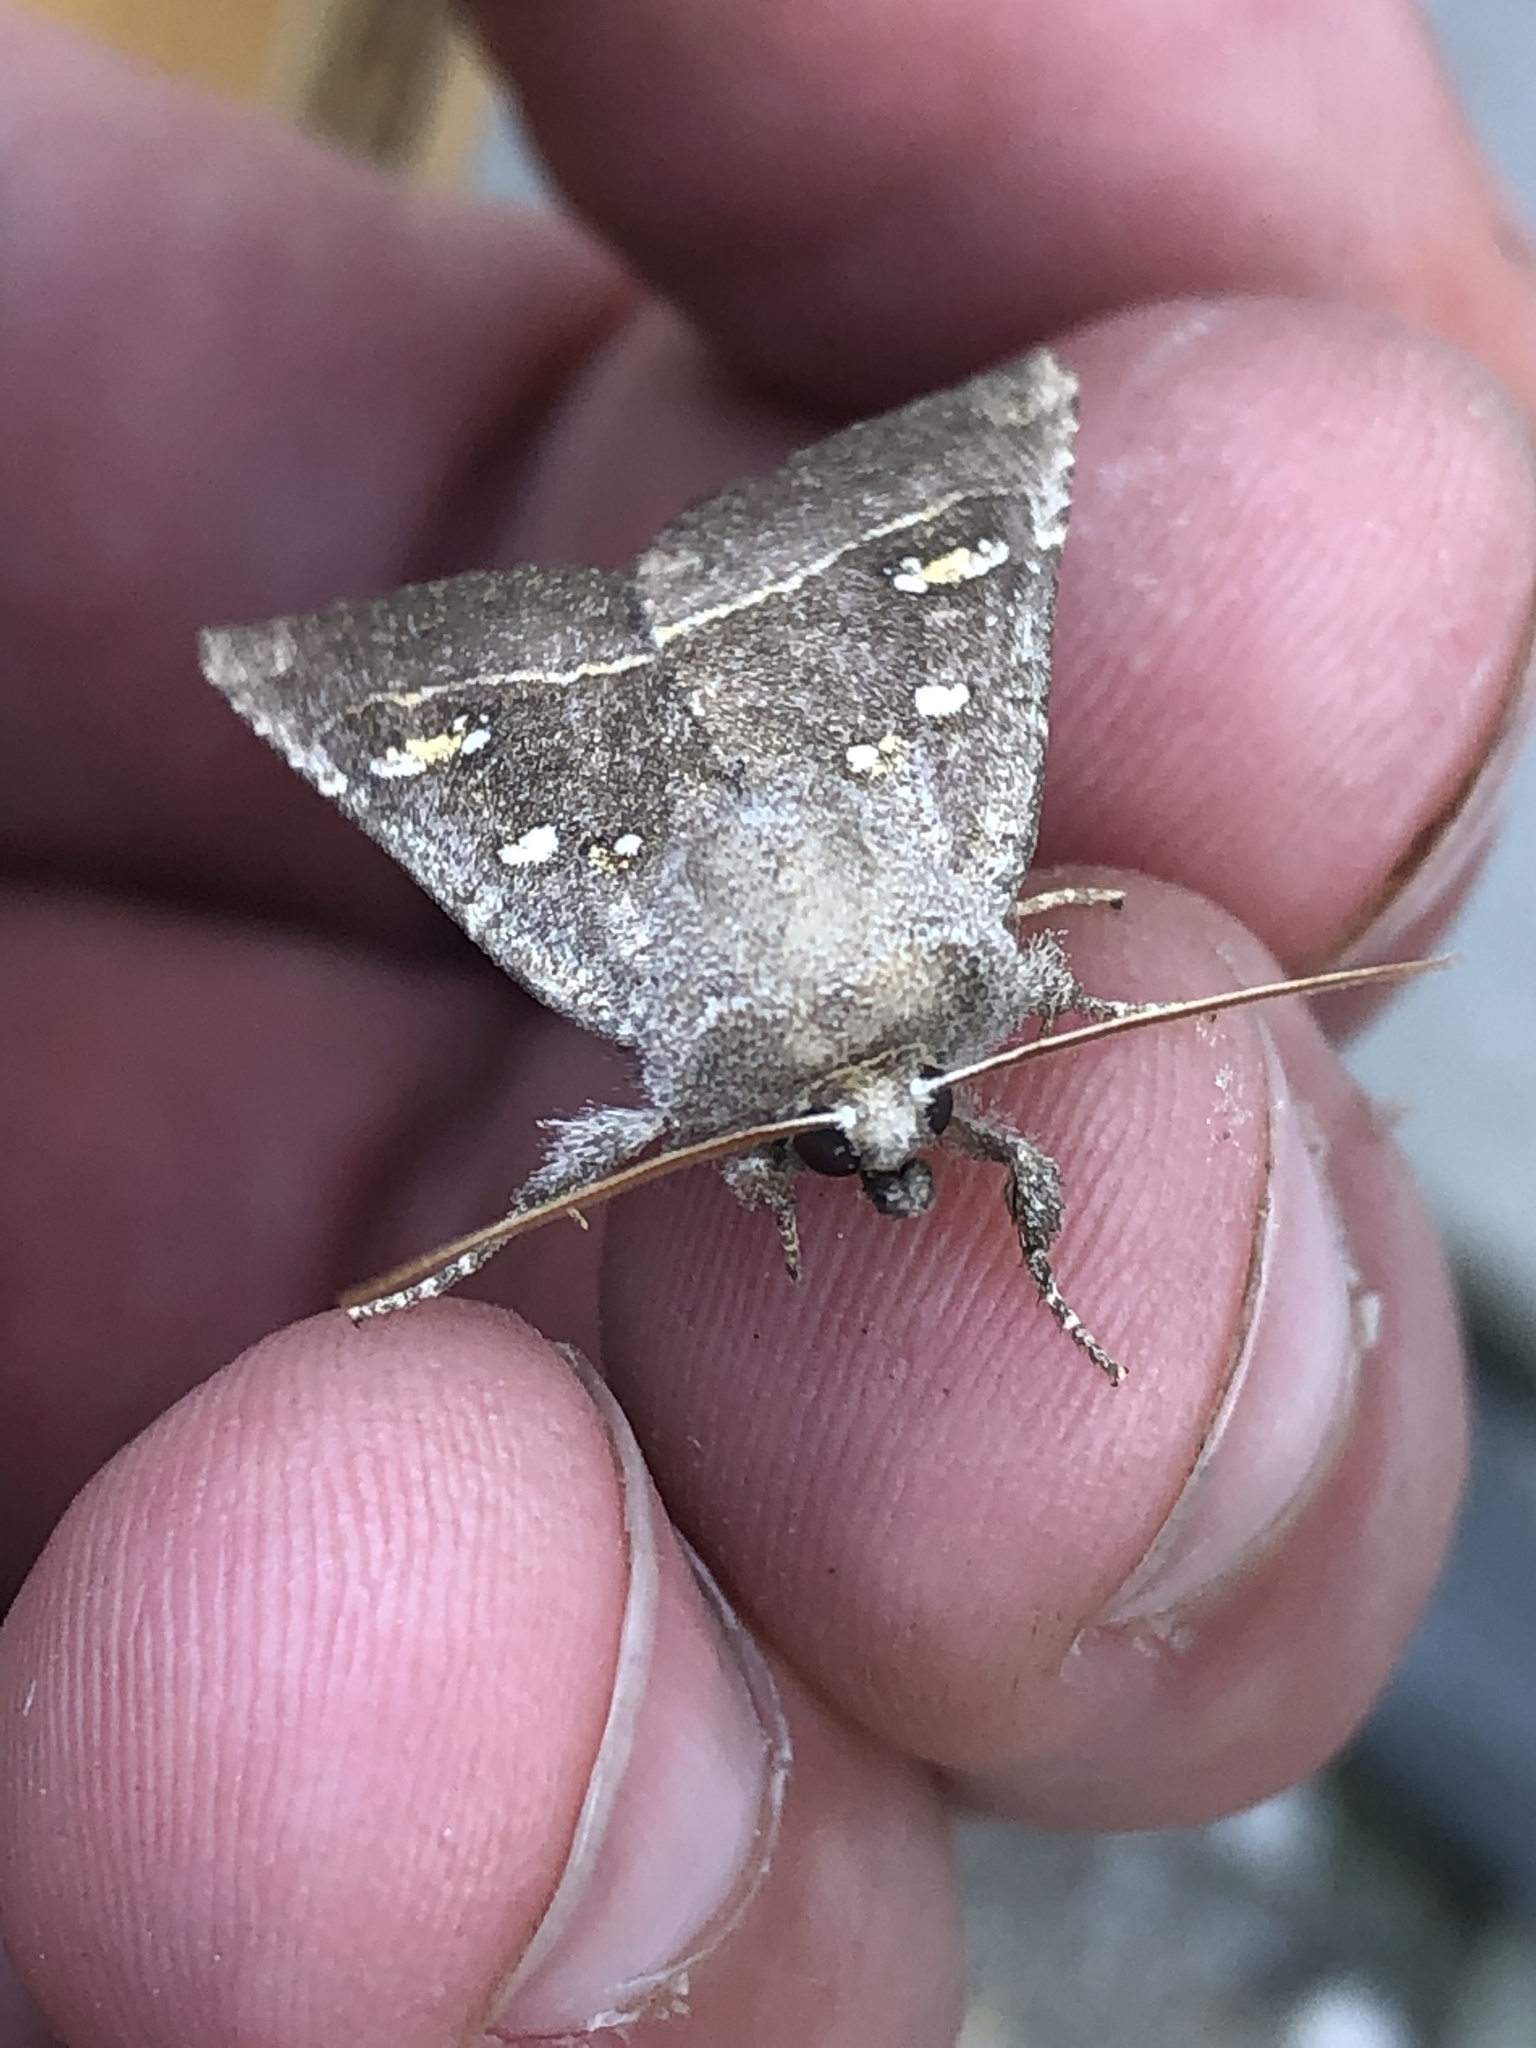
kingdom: Animalia
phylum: Arthropoda
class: Insecta
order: Lepidoptera
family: Noctuidae
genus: Papaipema
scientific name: Papaipema nebris
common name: Stalk borer
